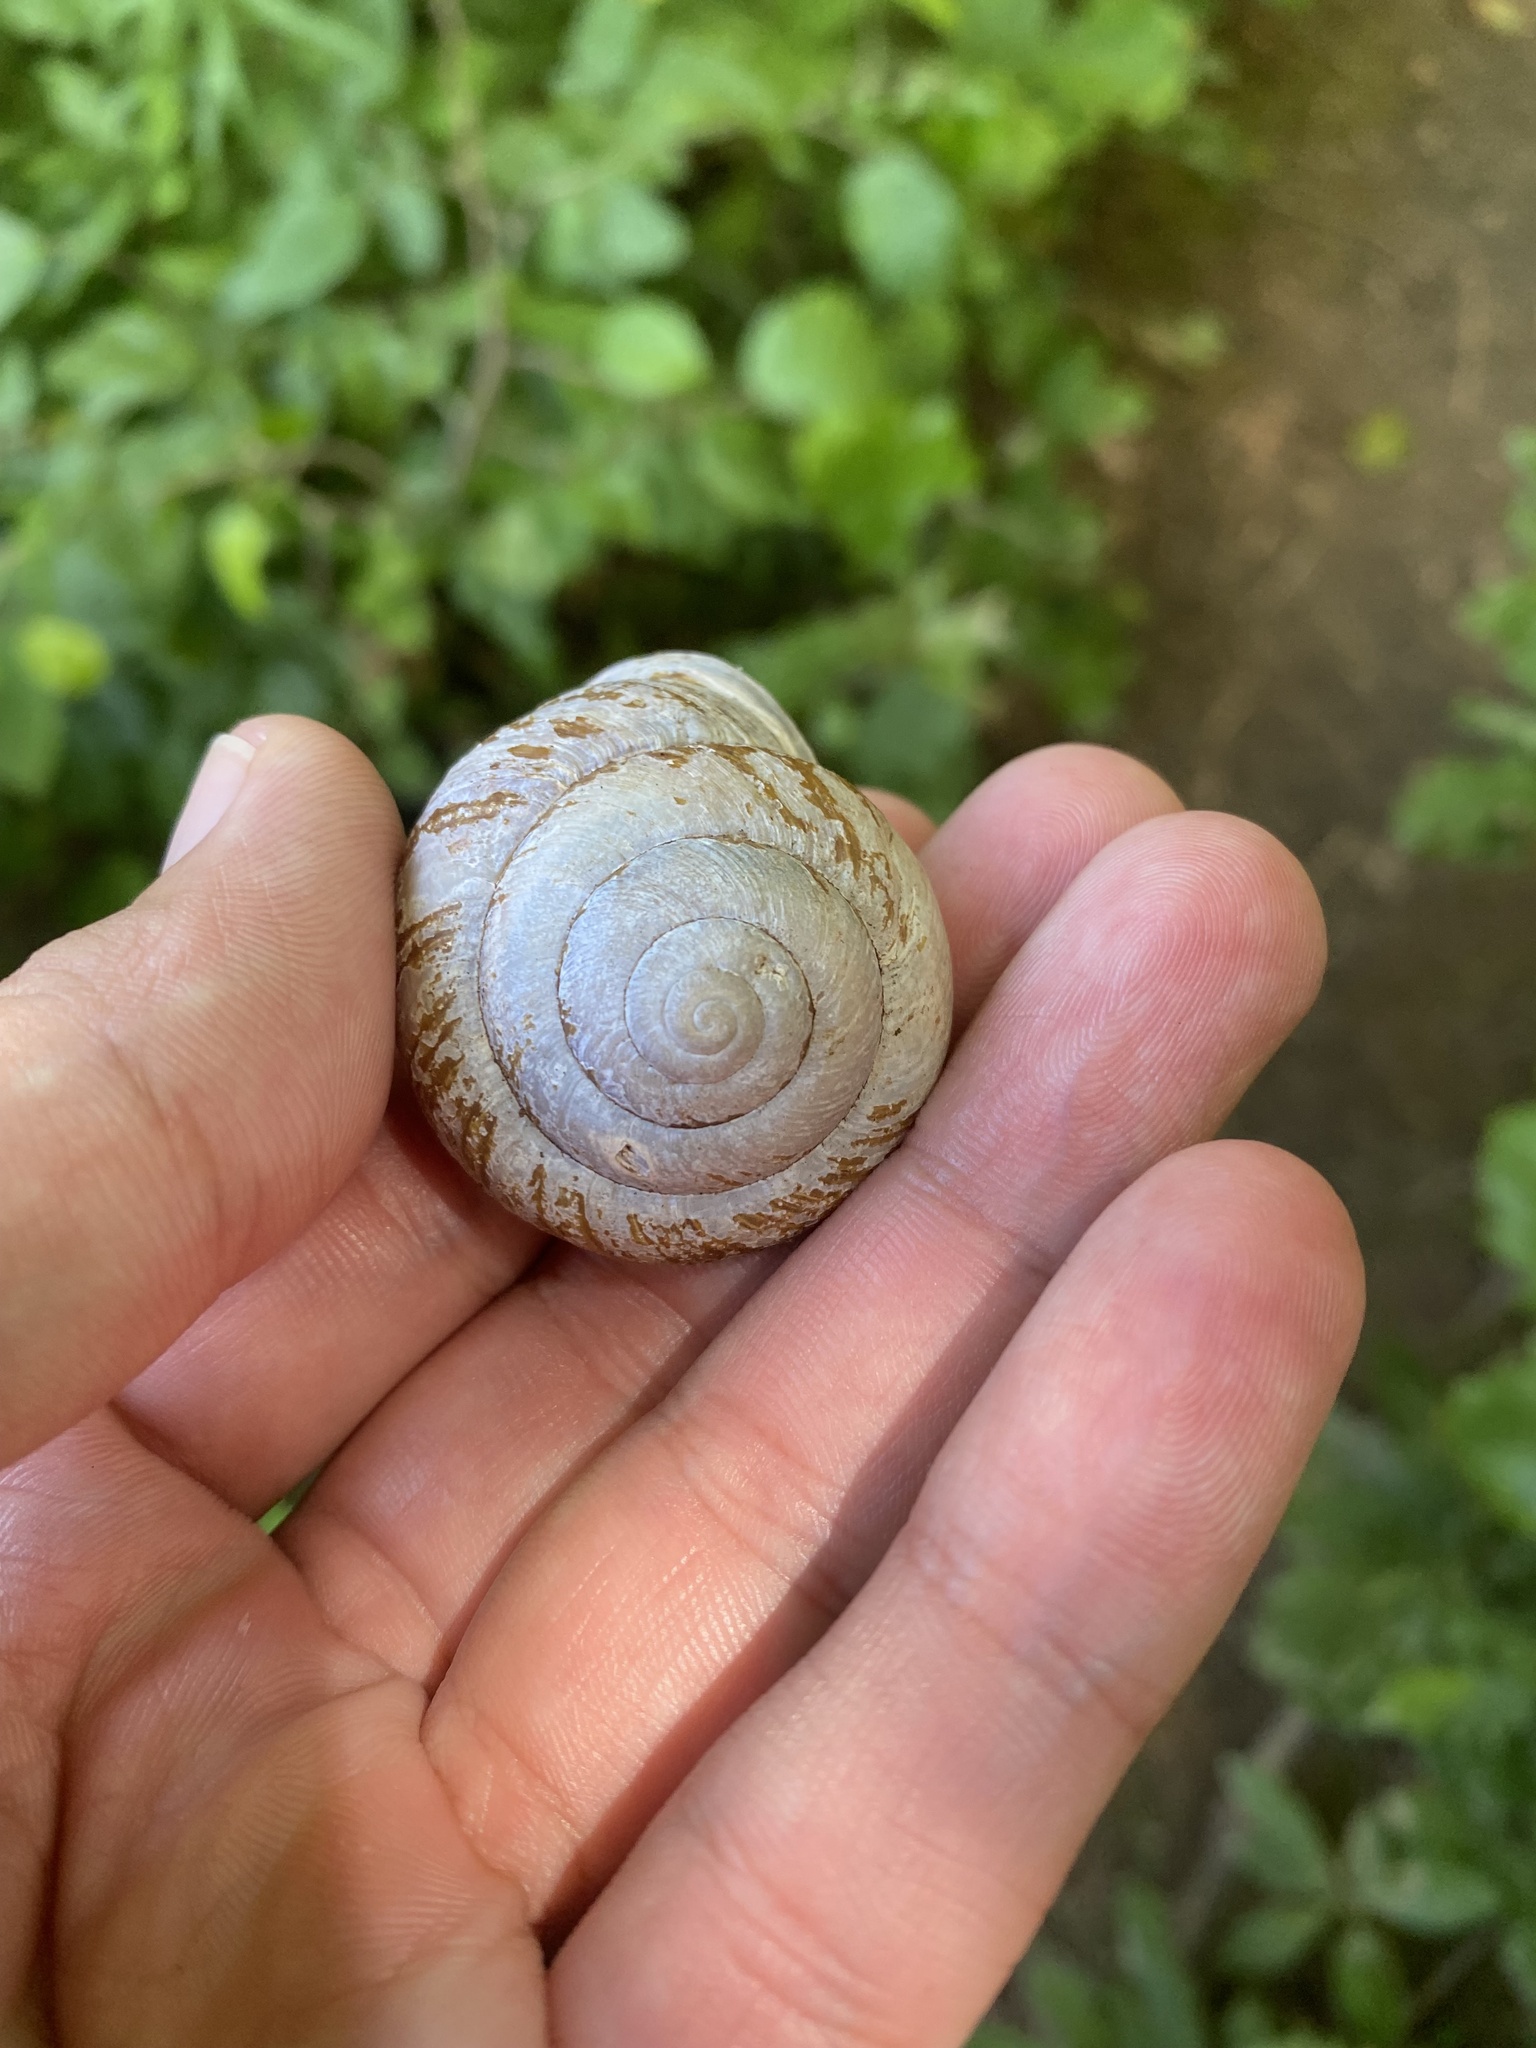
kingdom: Animalia
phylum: Mollusca
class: Gastropoda
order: Stylommatophora
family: Helicidae
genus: Caucasotachea
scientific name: Caucasotachea atrolabiata
